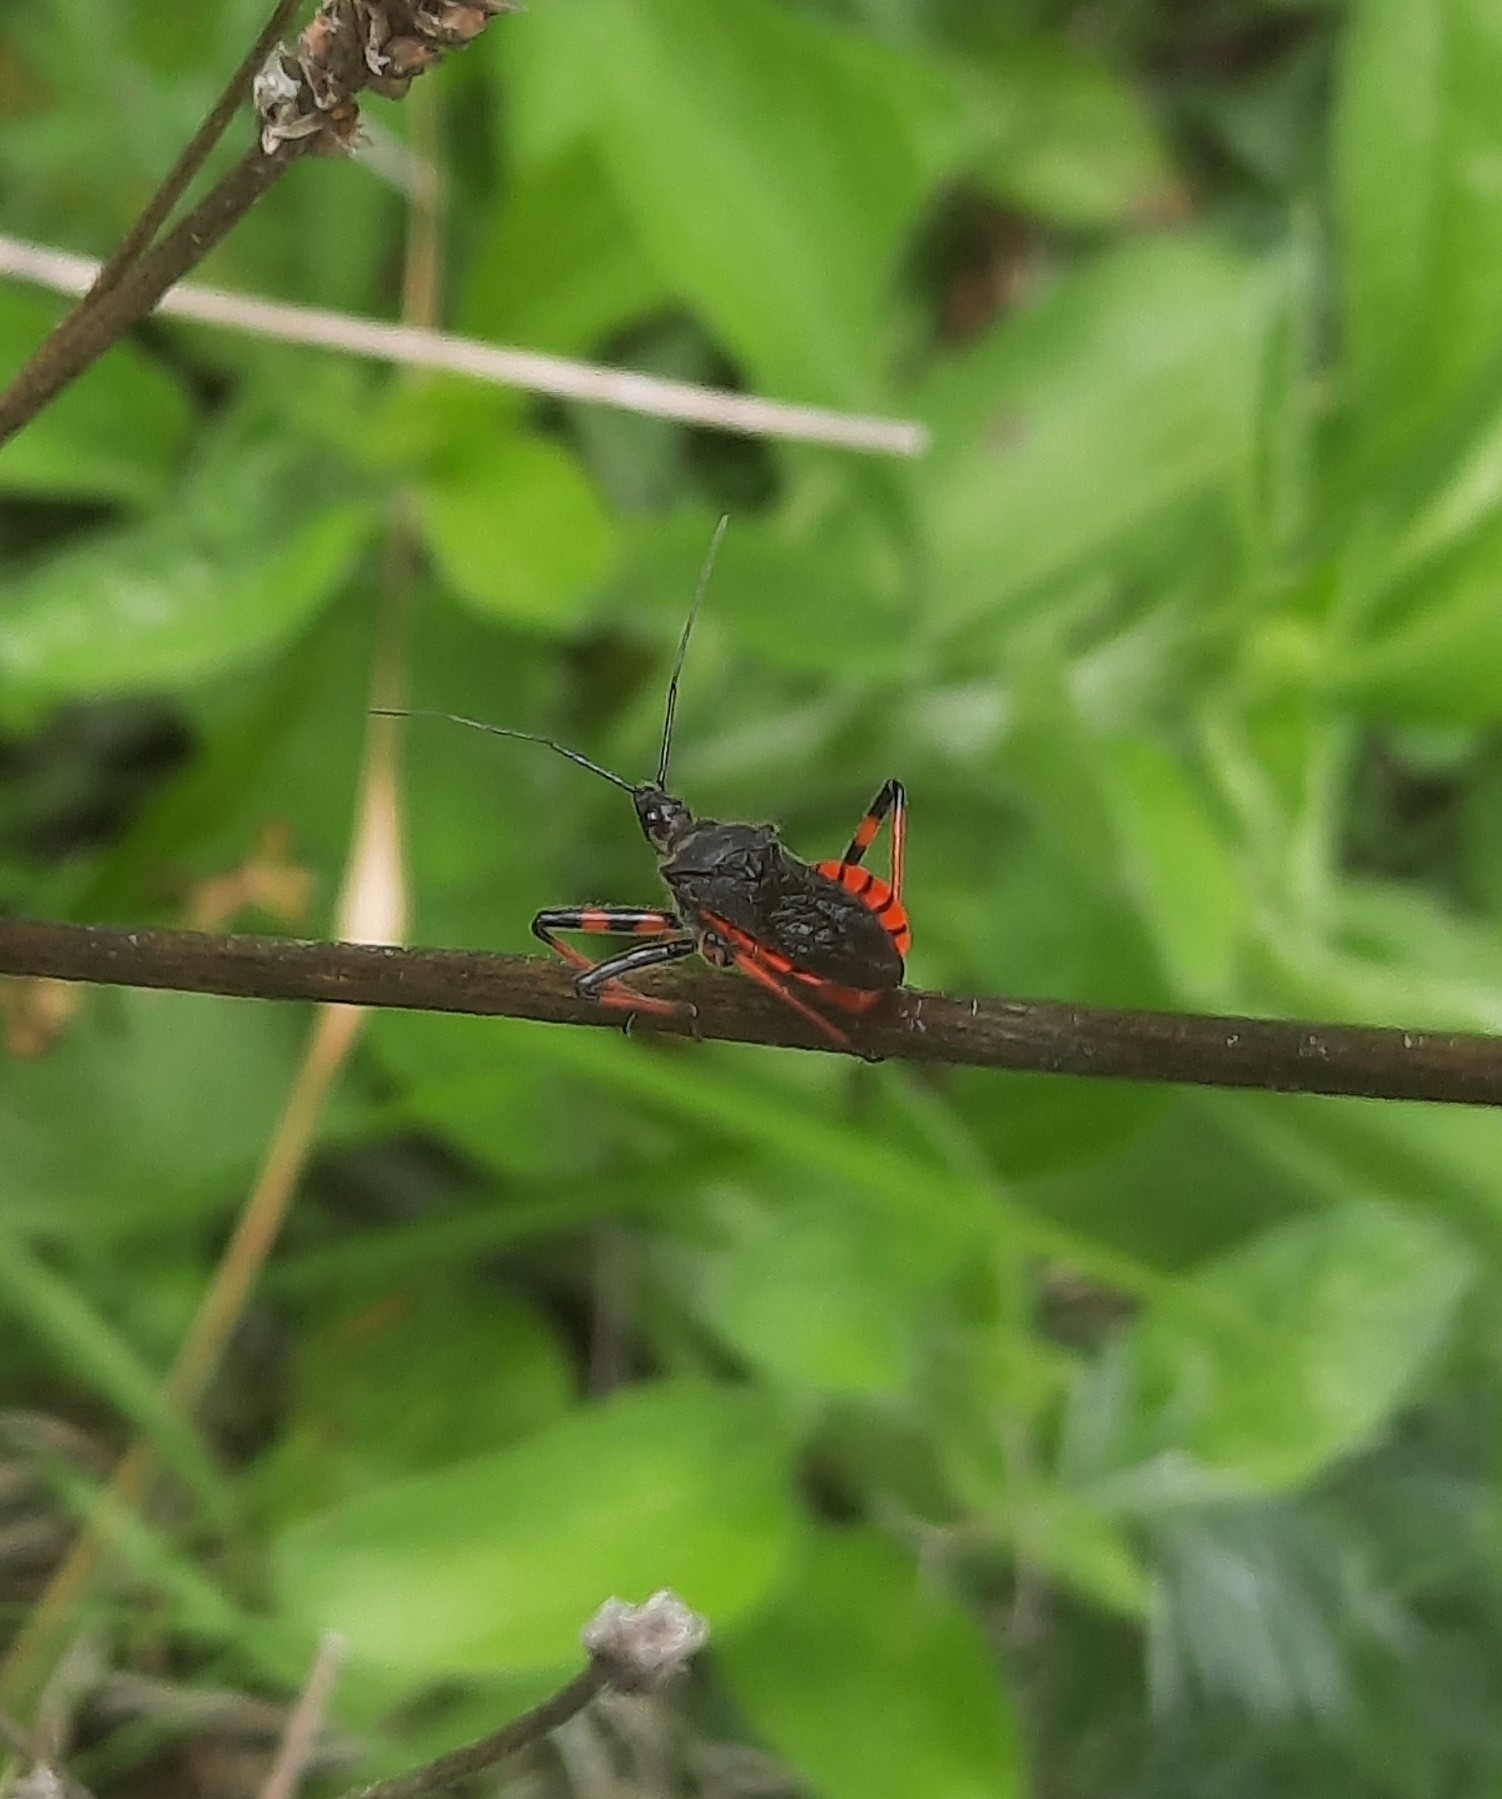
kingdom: Animalia
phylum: Arthropoda
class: Insecta
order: Hemiptera
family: Reduviidae
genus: Rhynocoris
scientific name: Rhynocoris annulatus
